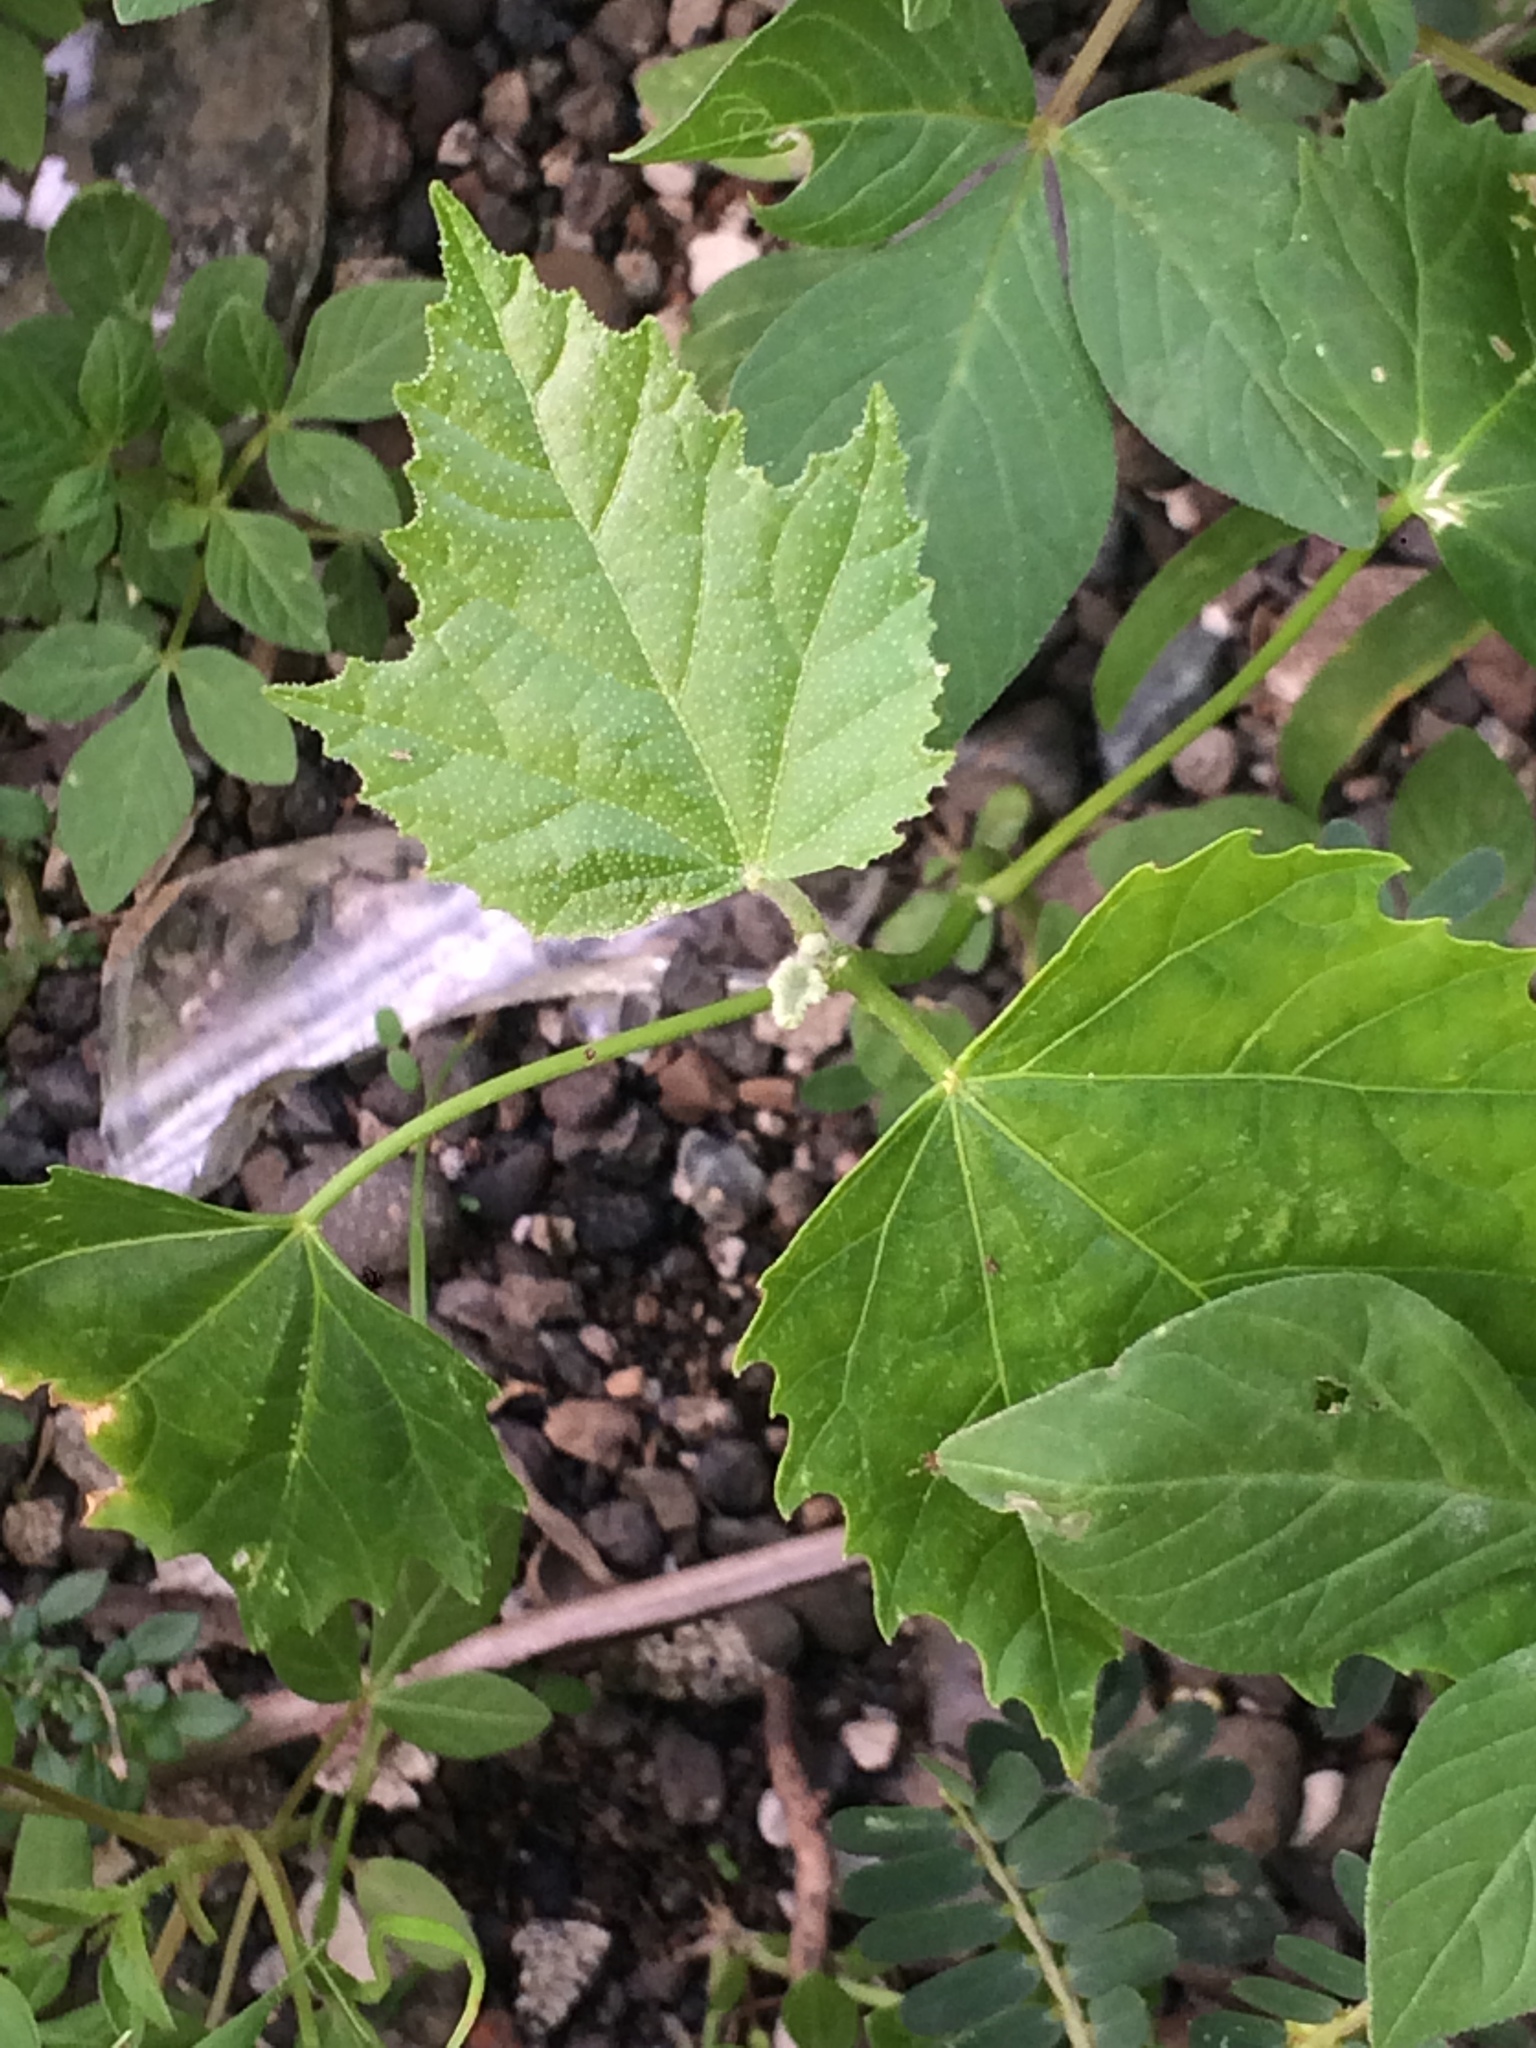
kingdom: Plantae
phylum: Tracheophyta
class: Magnoliopsida
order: Malpighiales
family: Euphorbiaceae
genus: Melanolepis
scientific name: Melanolepis multiglandulosa
